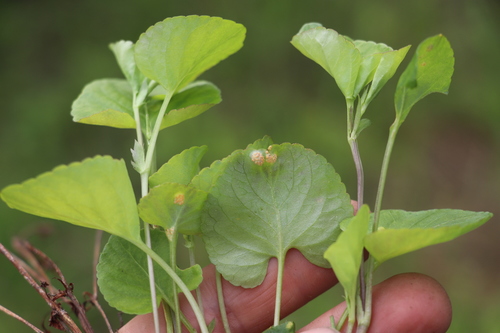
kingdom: Fungi
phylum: Basidiomycota
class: Pucciniomycetes
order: Pucciniales
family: Pucciniaceae
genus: Puccinia
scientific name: Puccinia violae
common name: Violet rust
